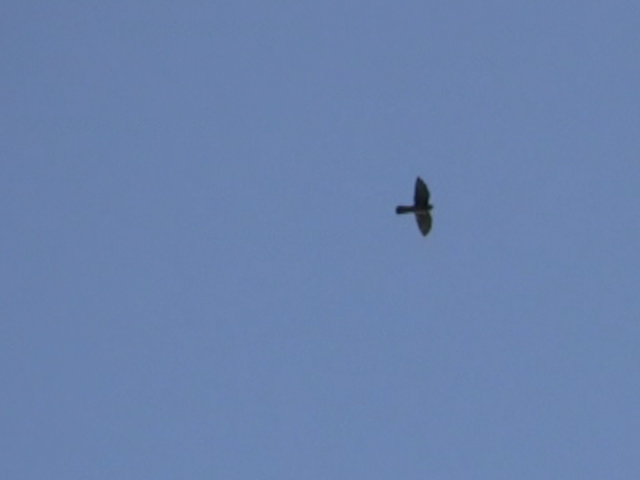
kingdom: Animalia
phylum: Chordata
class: Aves
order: Falconiformes
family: Falconidae
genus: Falco
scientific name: Falco novaeseelandiae
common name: New zealand falcon
